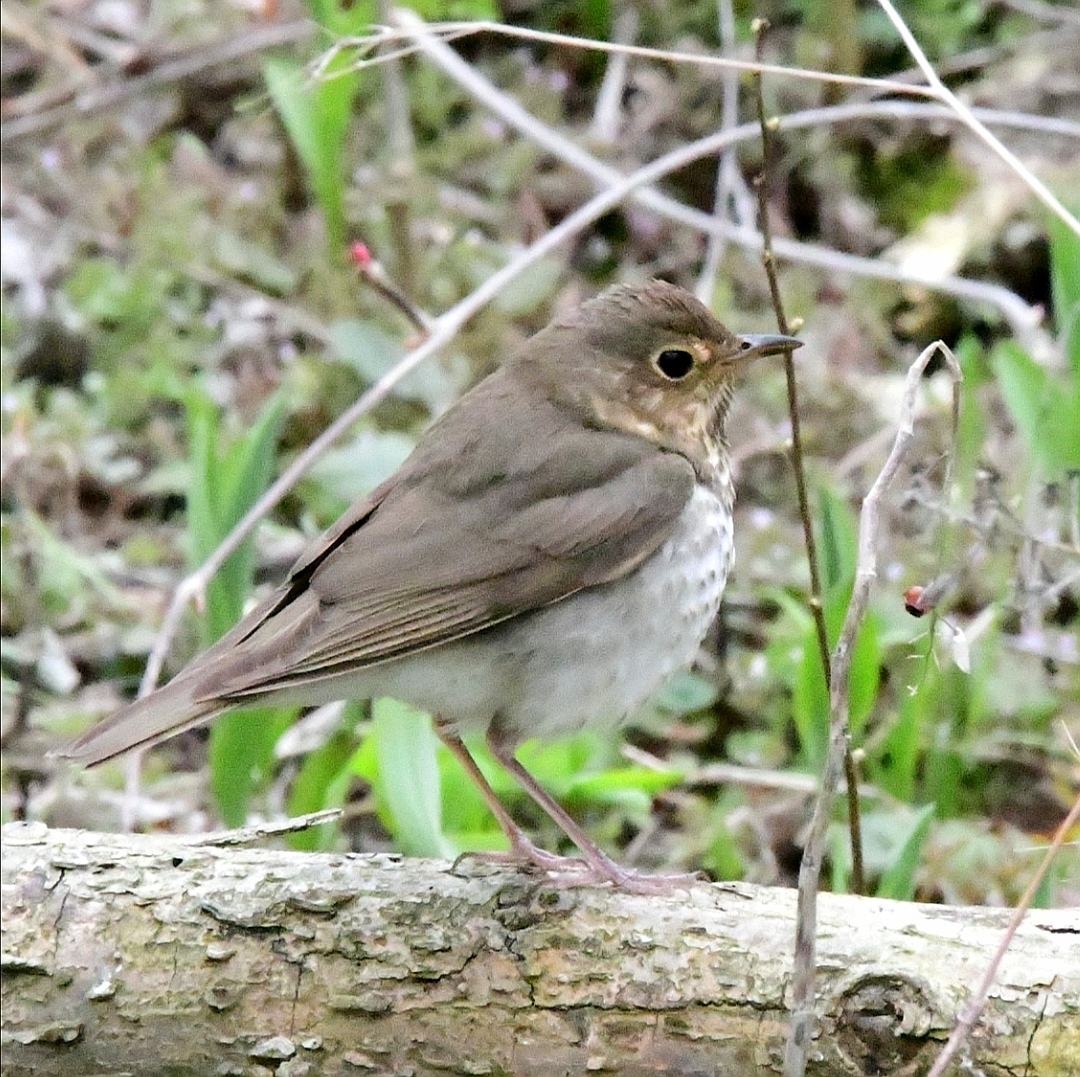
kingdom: Animalia
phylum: Chordata
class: Aves
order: Passeriformes
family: Turdidae
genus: Catharus
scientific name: Catharus ustulatus
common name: Swainson's thrush
